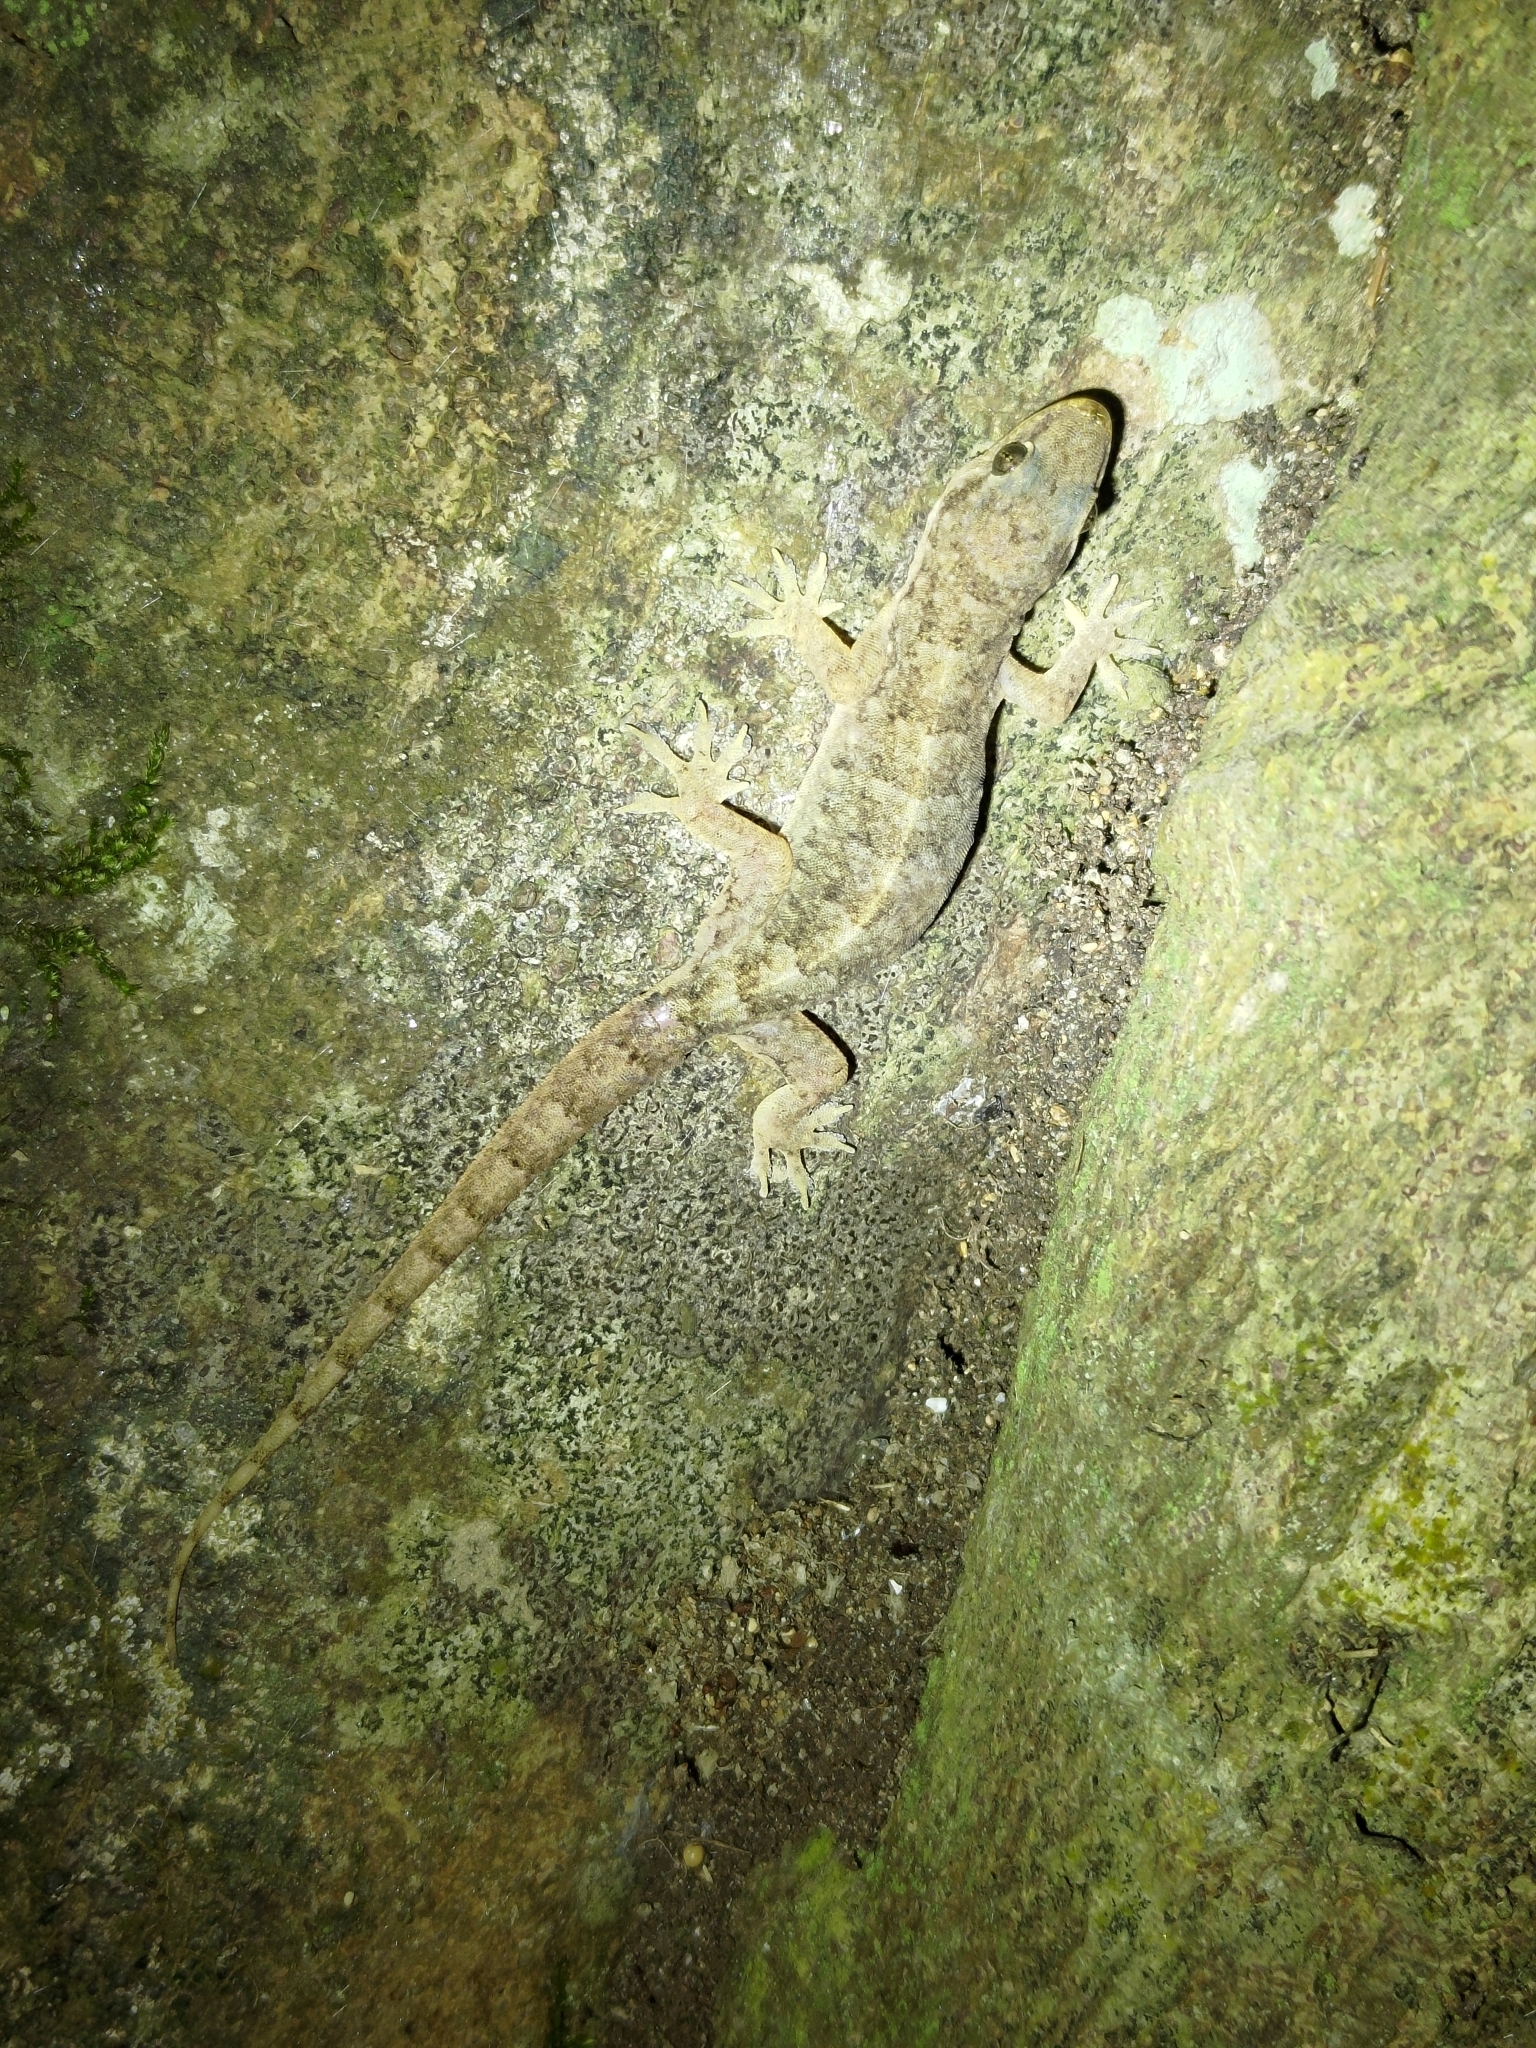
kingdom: Animalia
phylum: Chordata
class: Squamata
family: Gekkonidae
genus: Hemidactylus
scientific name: Hemidactylus bowringii
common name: Oriental leaf-toed gecko
